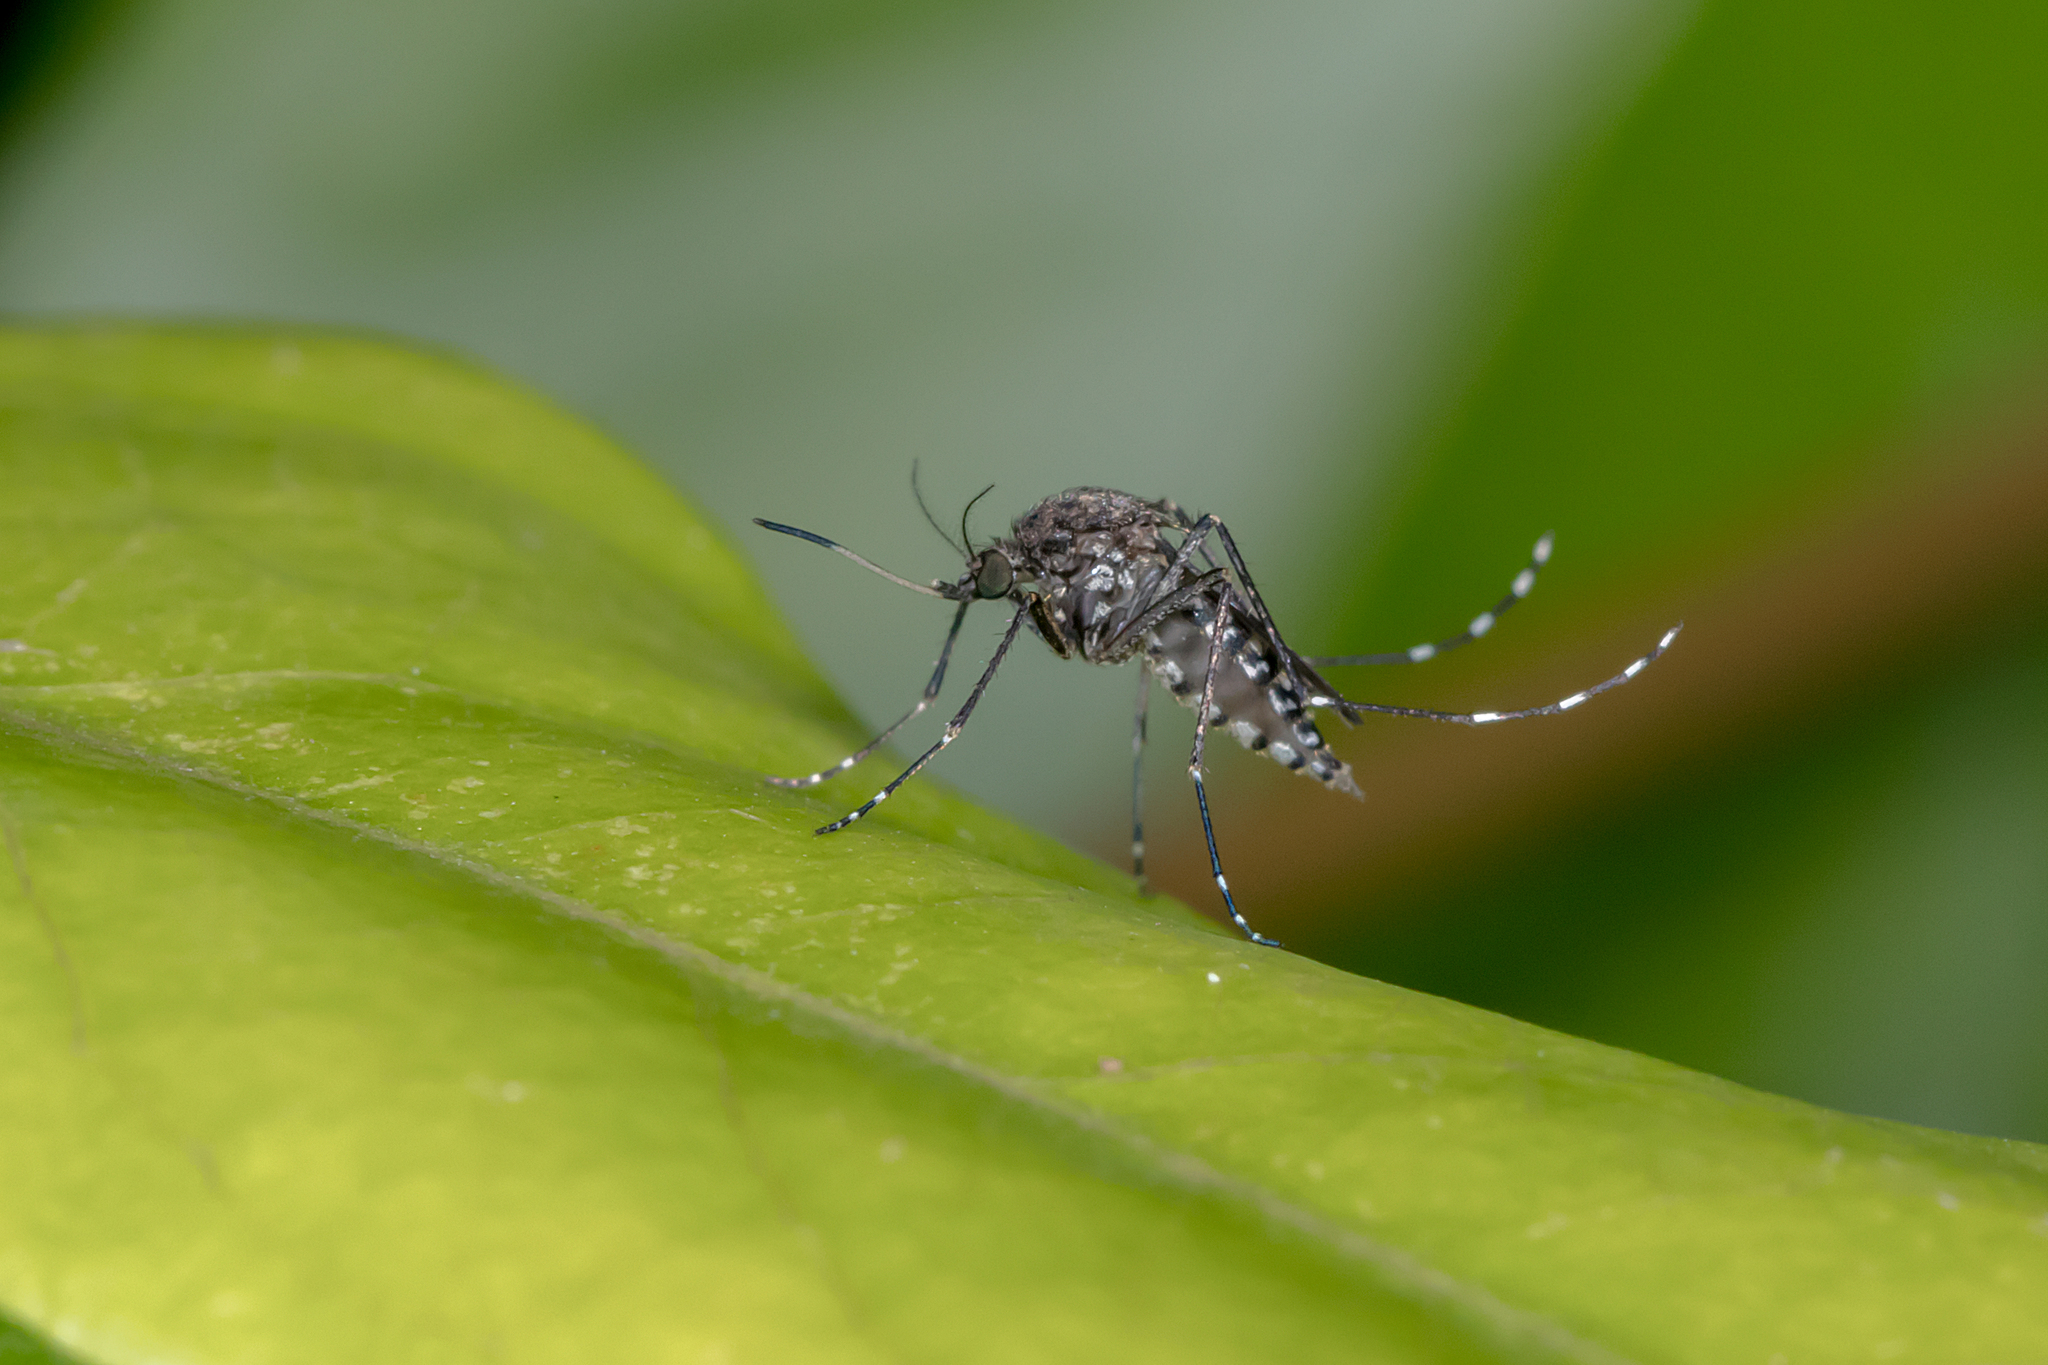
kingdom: Animalia
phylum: Arthropoda
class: Insecta
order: Diptera
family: Culicidae
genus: Aedes
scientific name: Aedes vigilax
